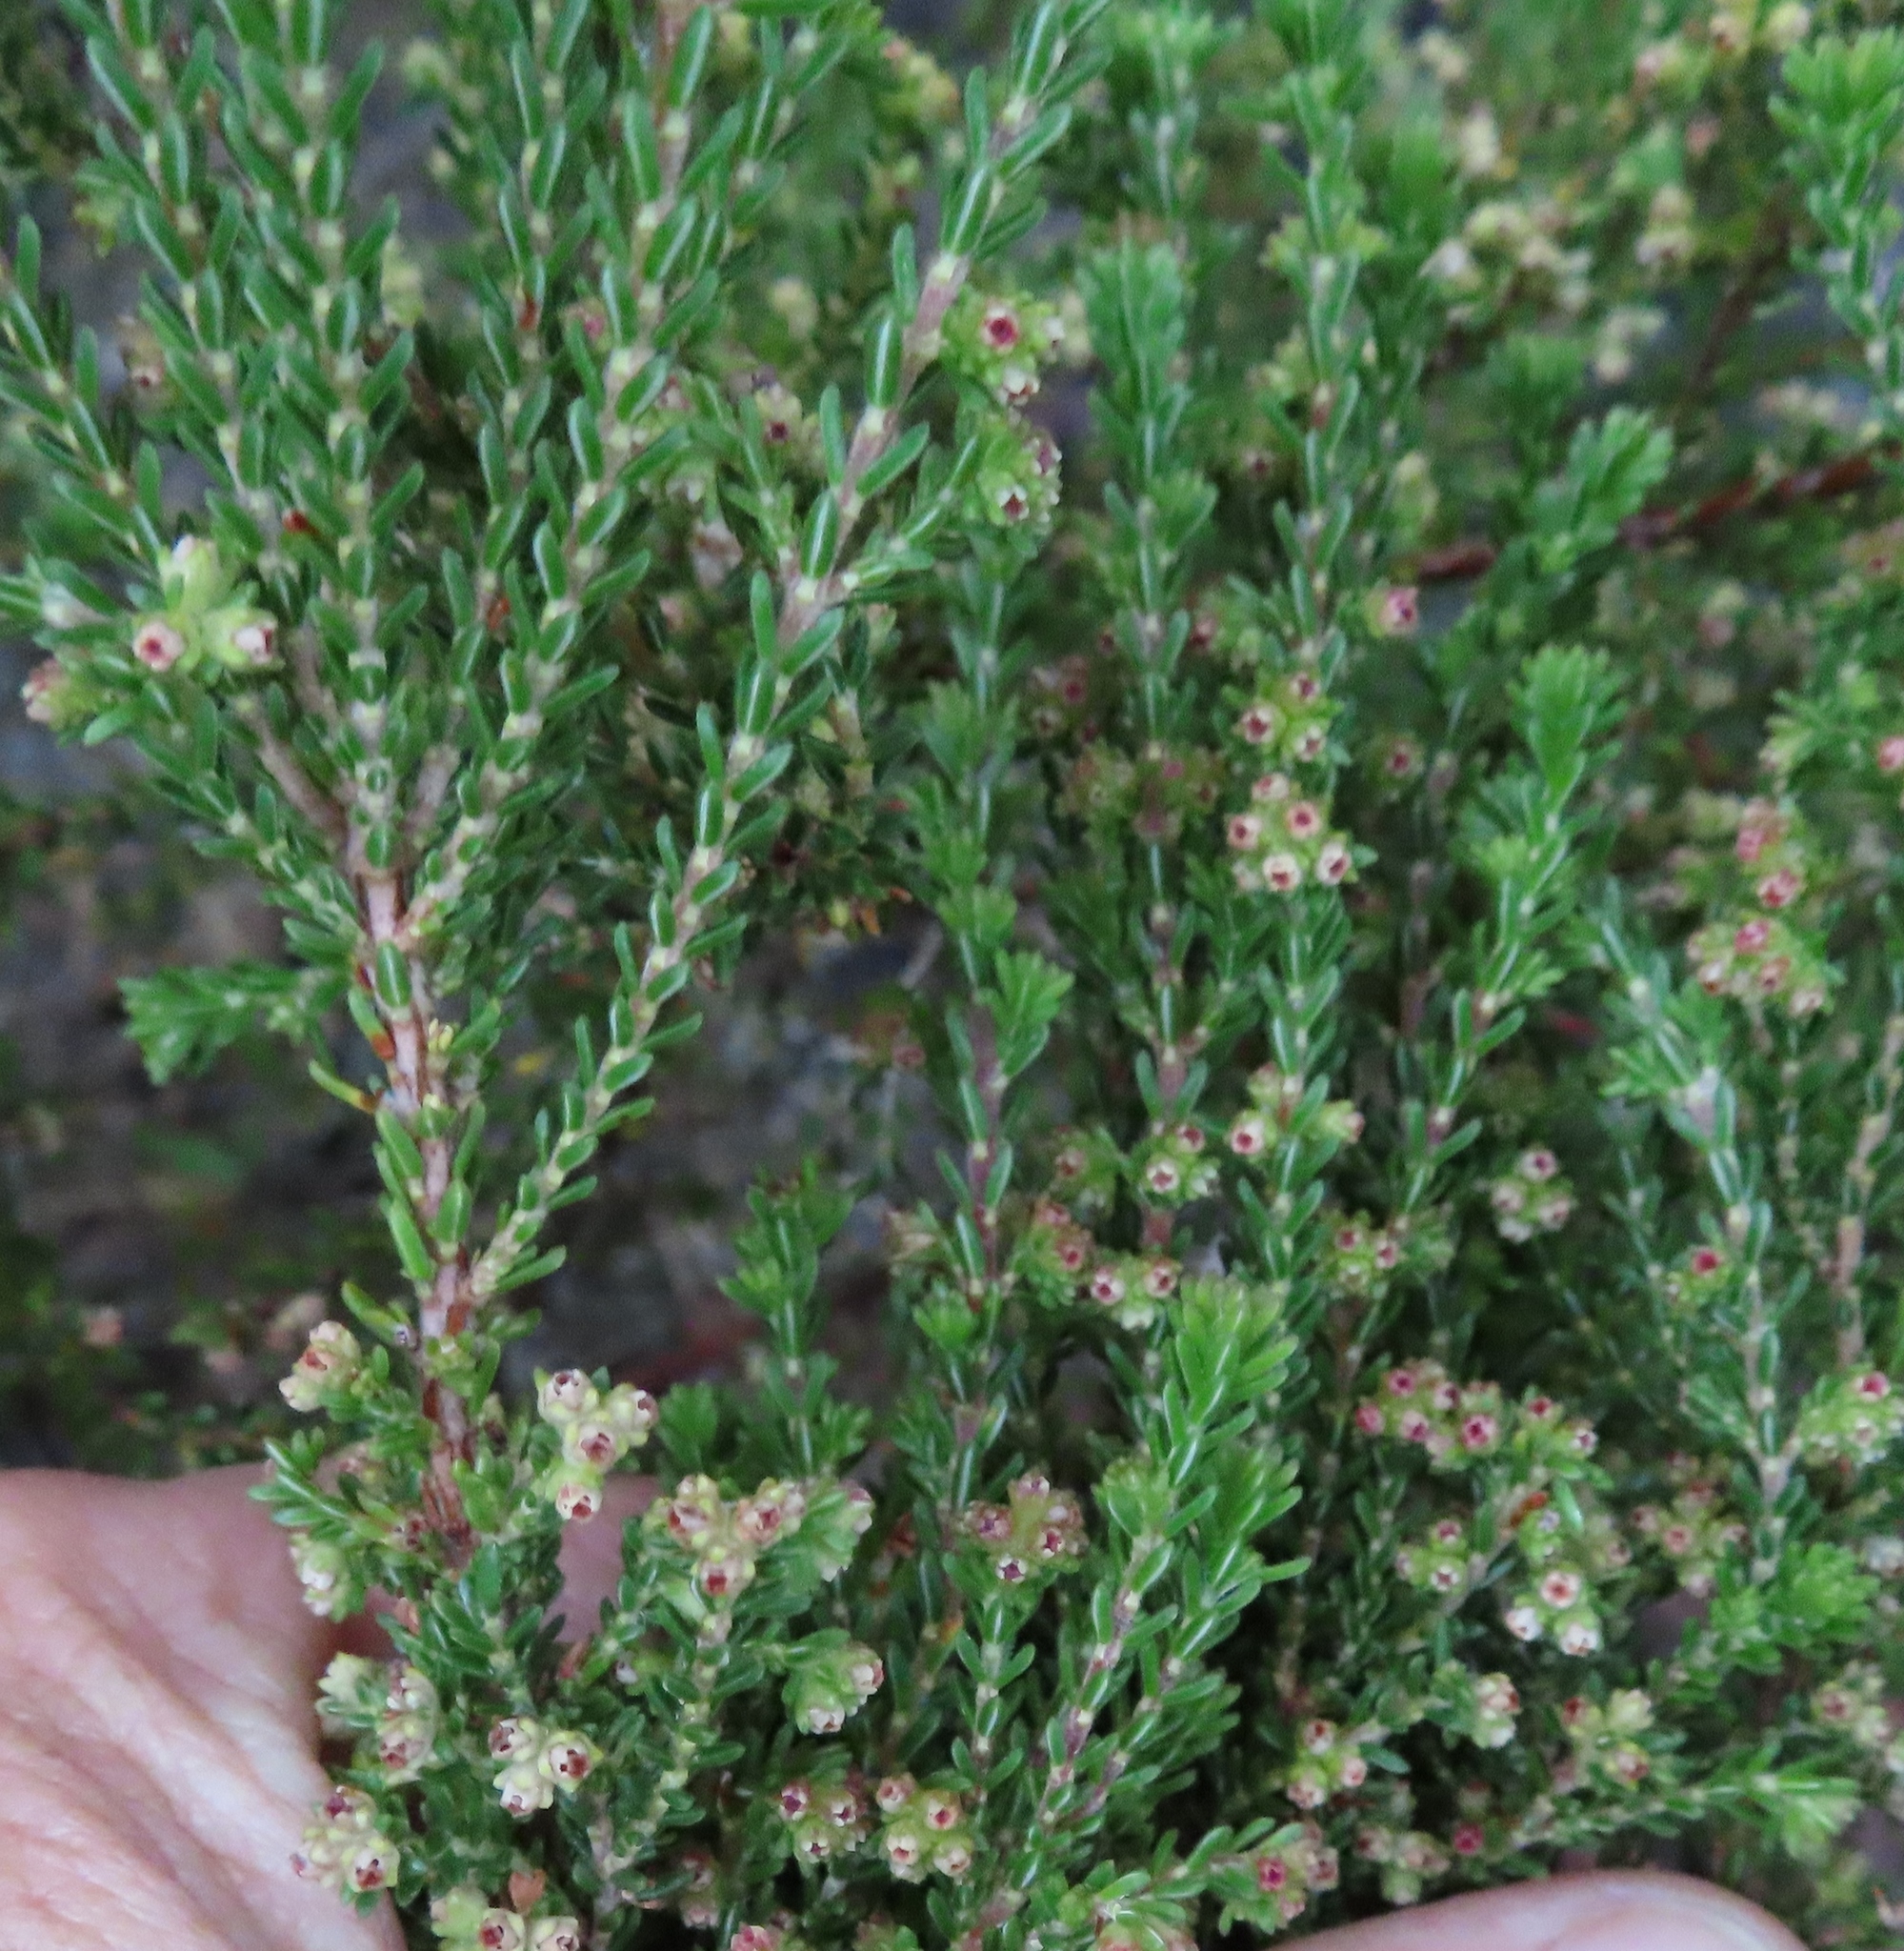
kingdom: Plantae
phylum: Tracheophyta
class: Magnoliopsida
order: Ericales
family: Ericaceae
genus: Erica
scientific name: Erica serrata
